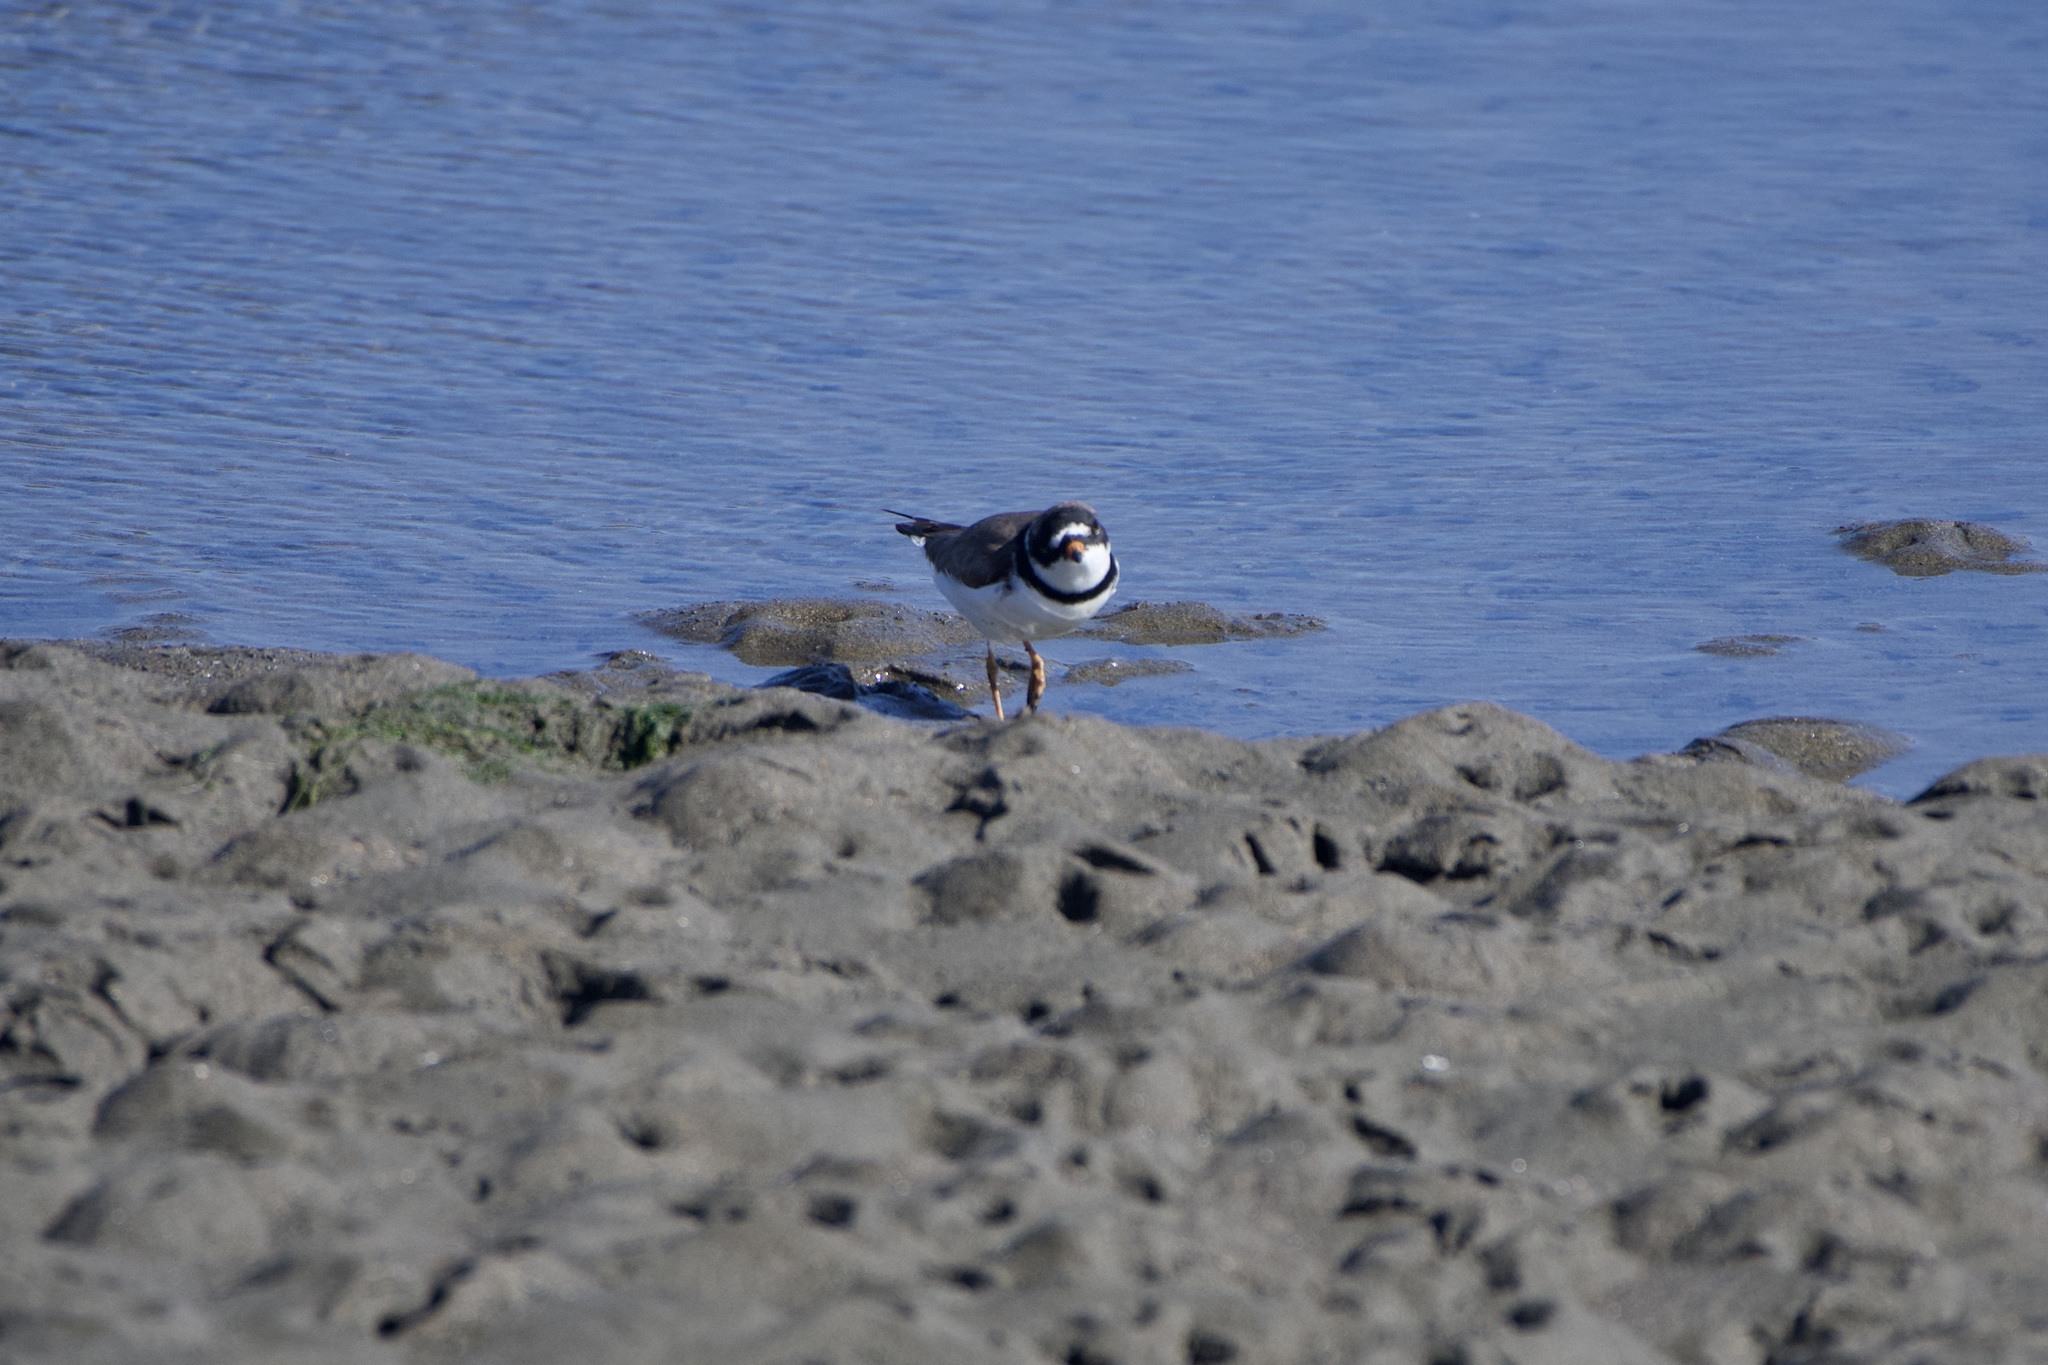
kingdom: Animalia
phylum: Chordata
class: Aves
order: Charadriiformes
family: Charadriidae
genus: Charadrius
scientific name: Charadrius semipalmatus
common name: Semipalmated plover
